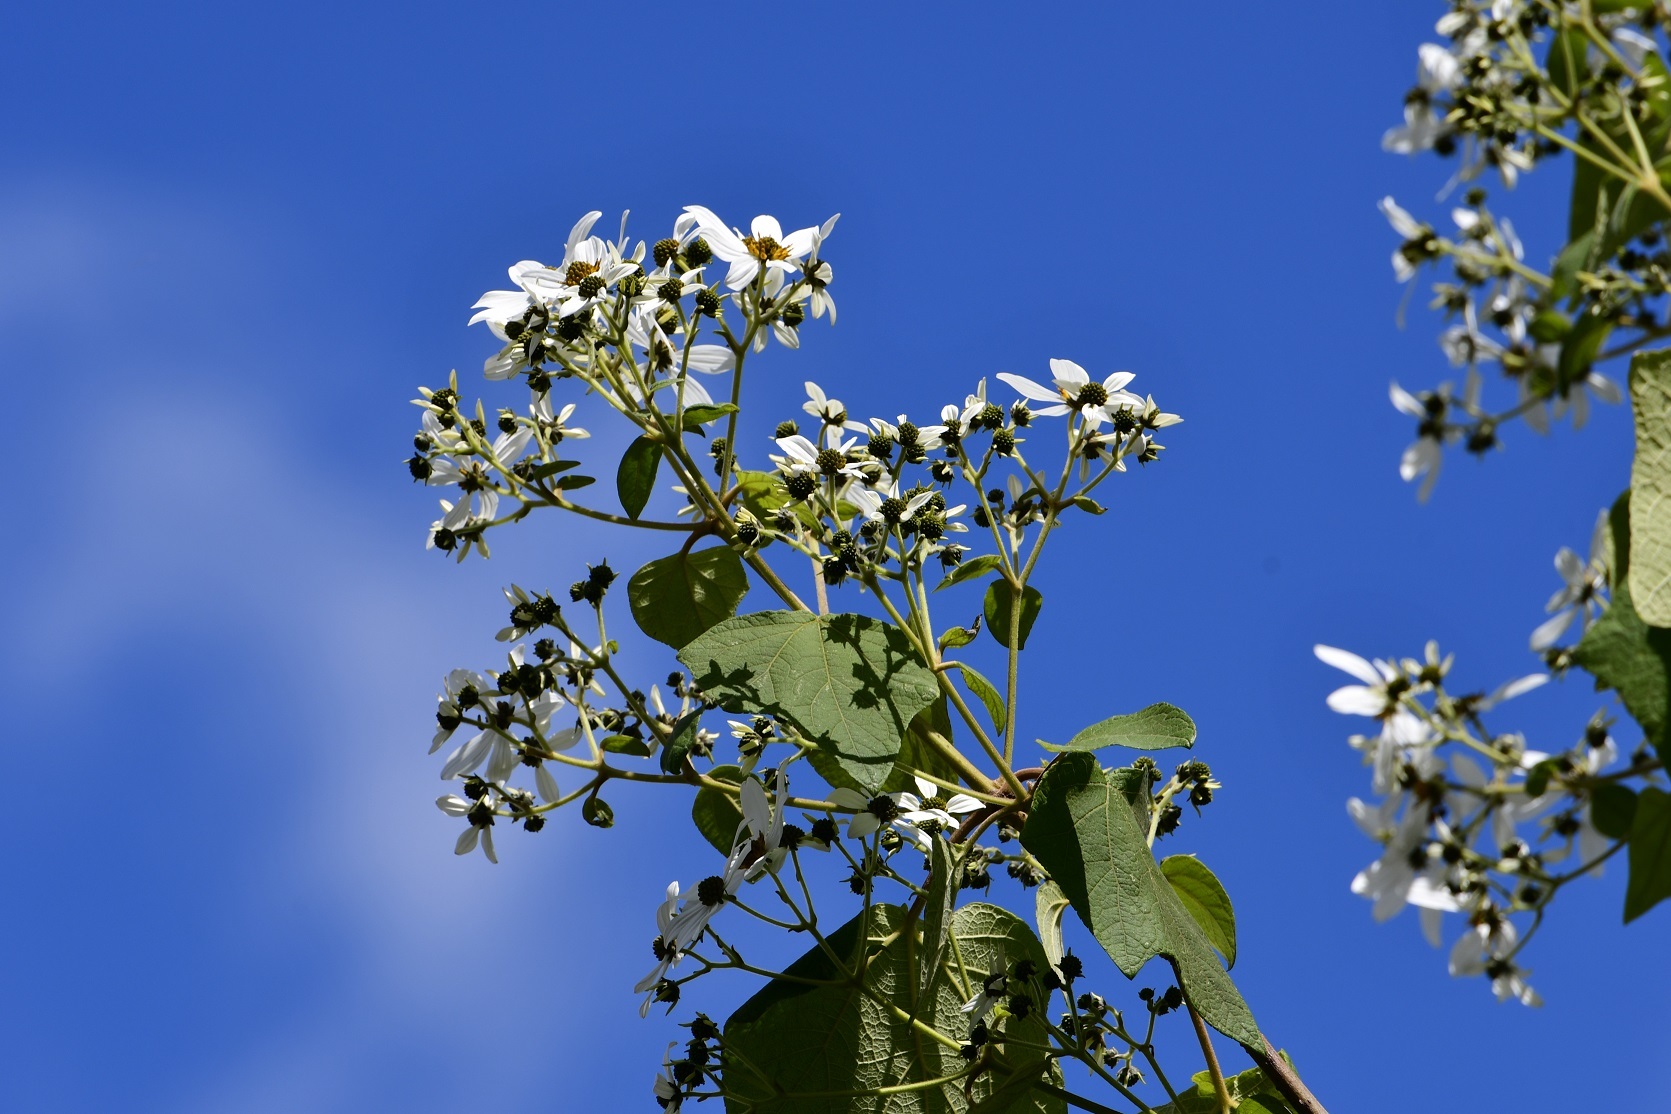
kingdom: Plantae
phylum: Tracheophyta
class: Magnoliopsida
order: Asterales
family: Asteraceae
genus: Montanoa
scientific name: Montanoa leucantha
